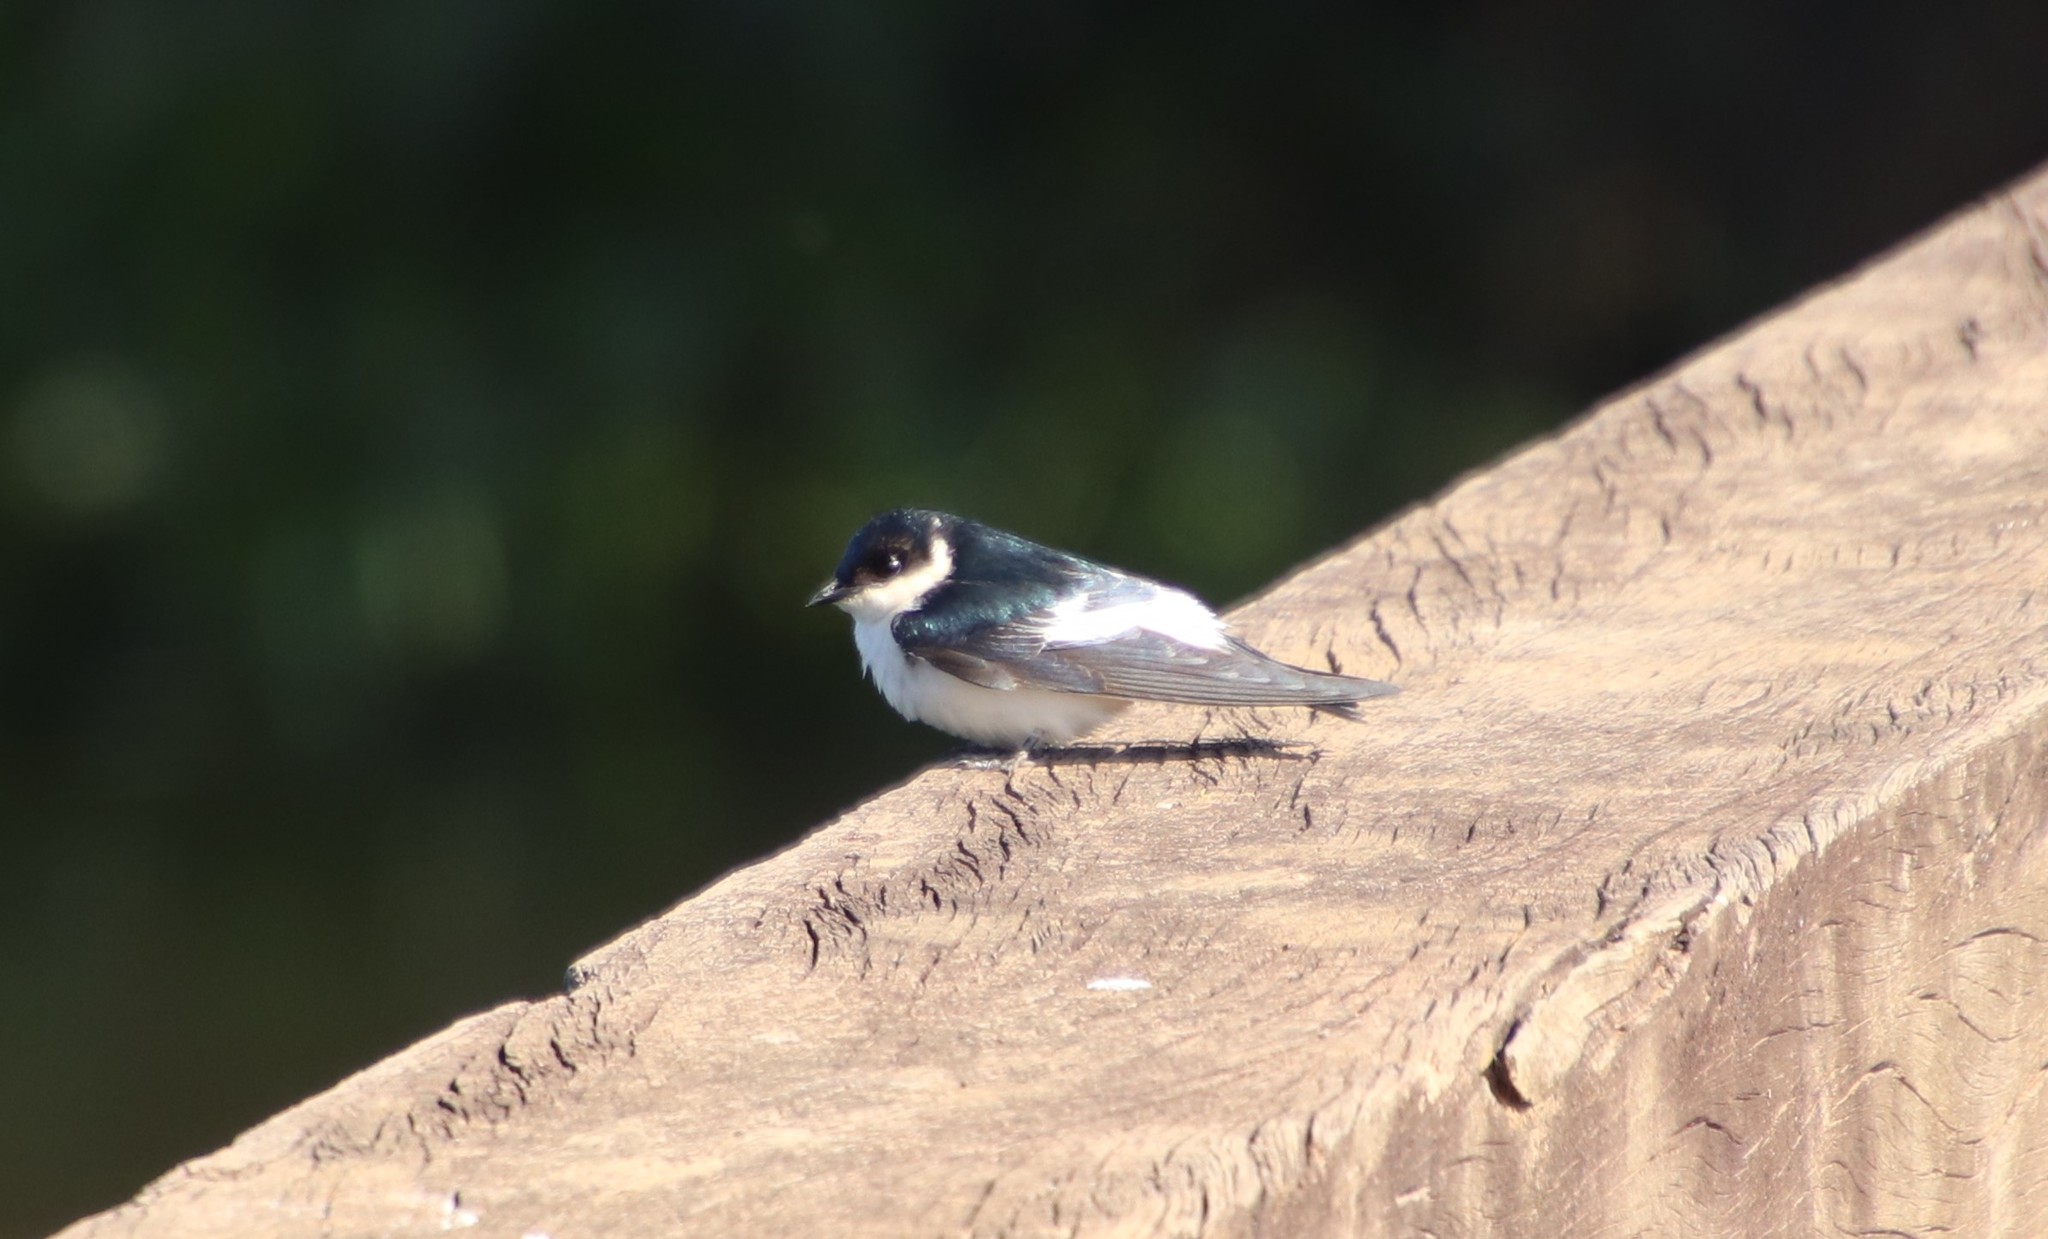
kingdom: Animalia
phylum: Chordata
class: Aves
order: Passeriformes
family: Hirundinidae
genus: Tachycineta
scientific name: Tachycineta albiventer
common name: White-winged swallow
